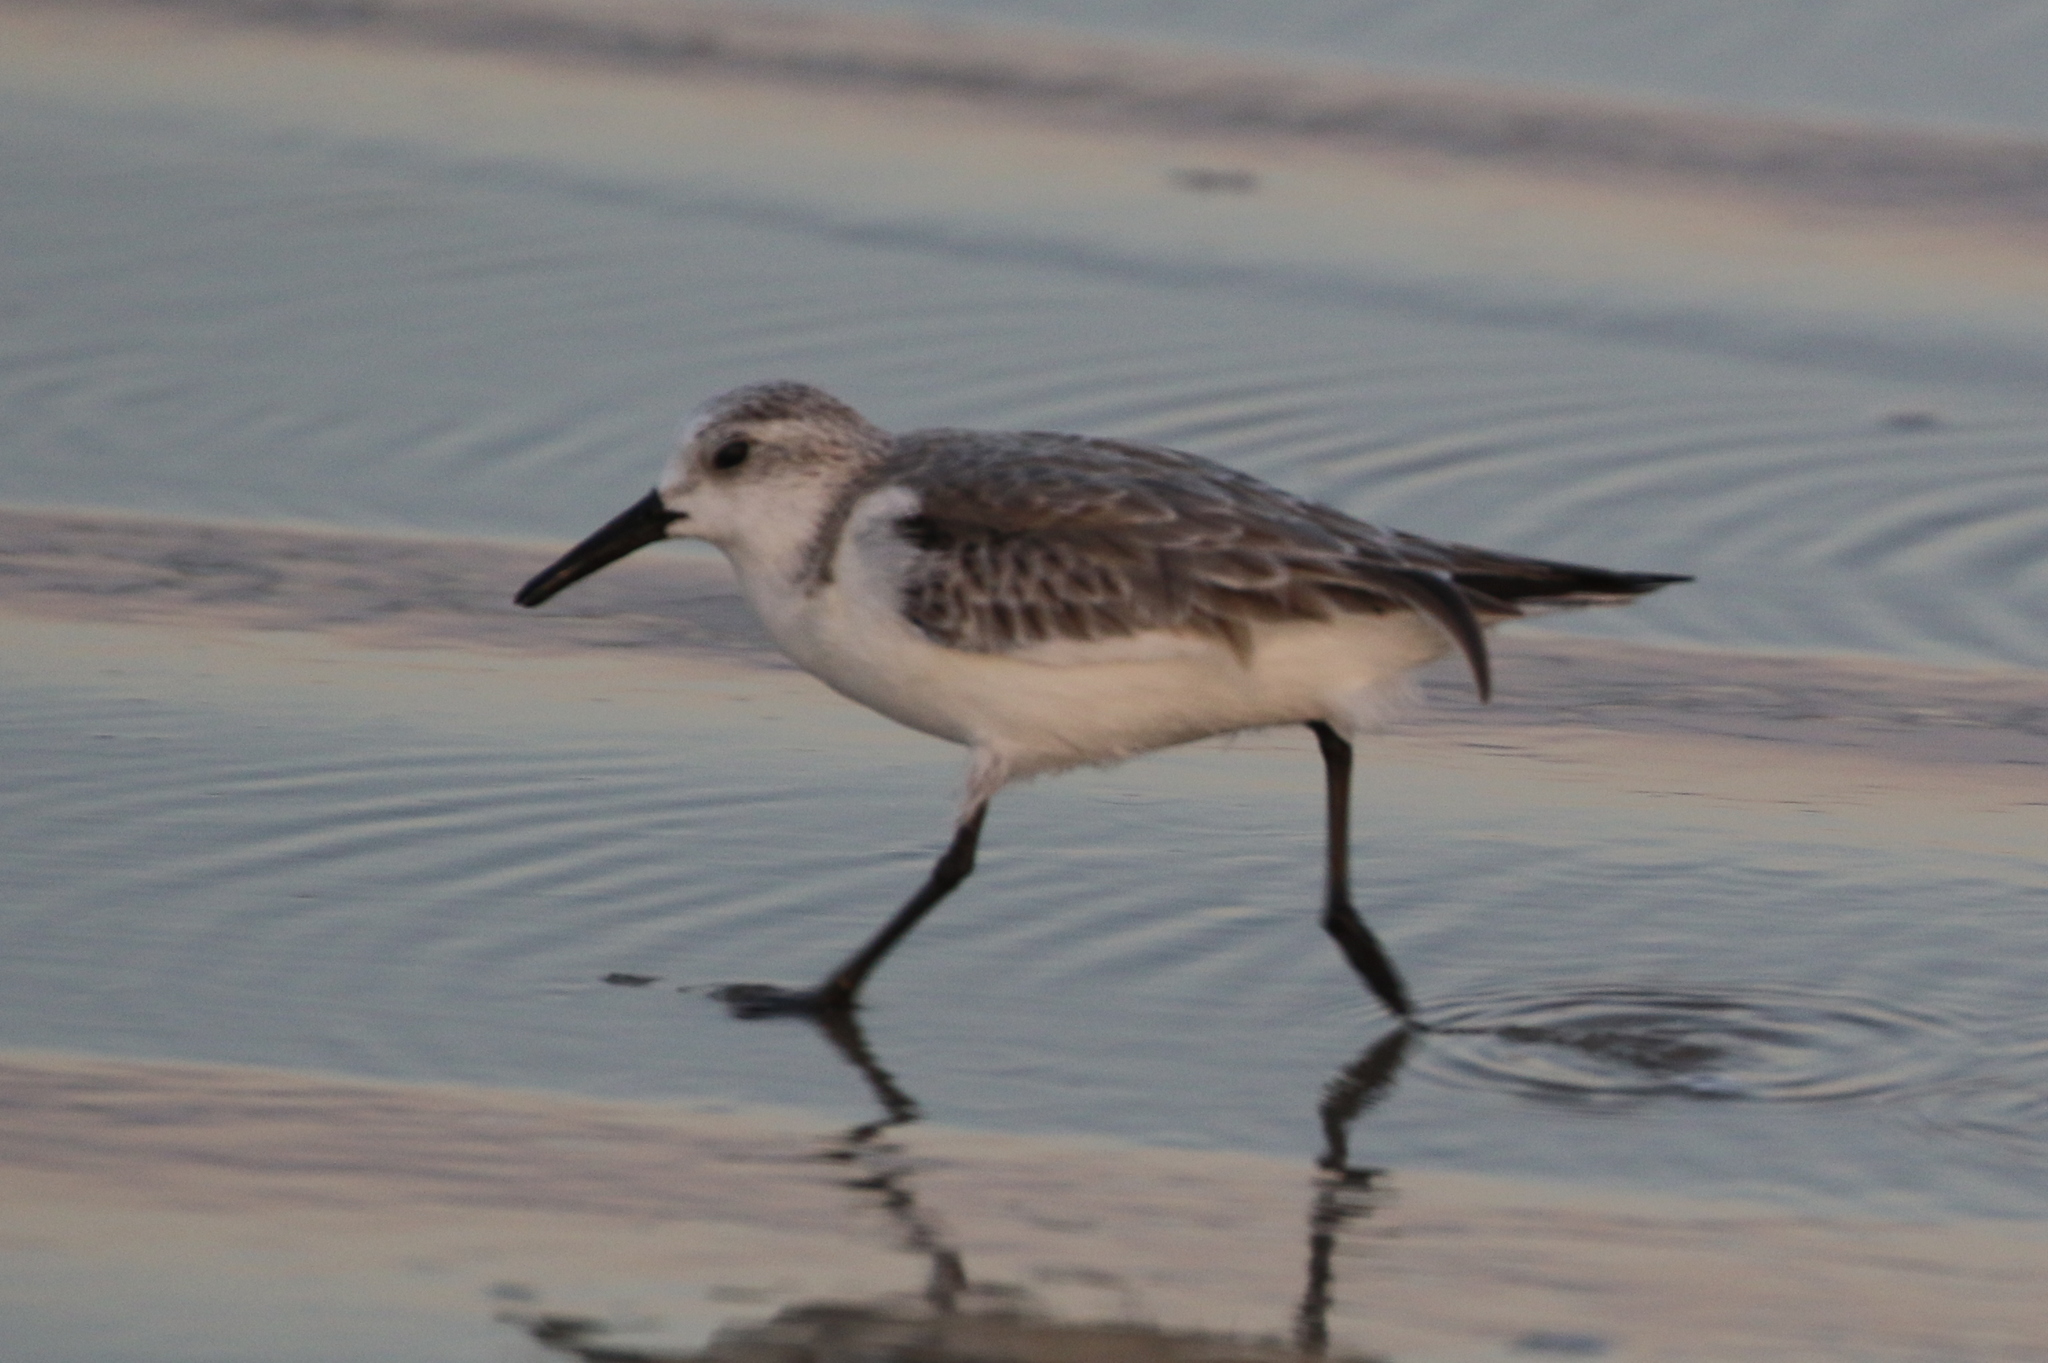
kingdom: Animalia
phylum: Chordata
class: Aves
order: Charadriiformes
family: Scolopacidae
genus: Calidris
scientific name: Calidris alba
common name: Sanderling
